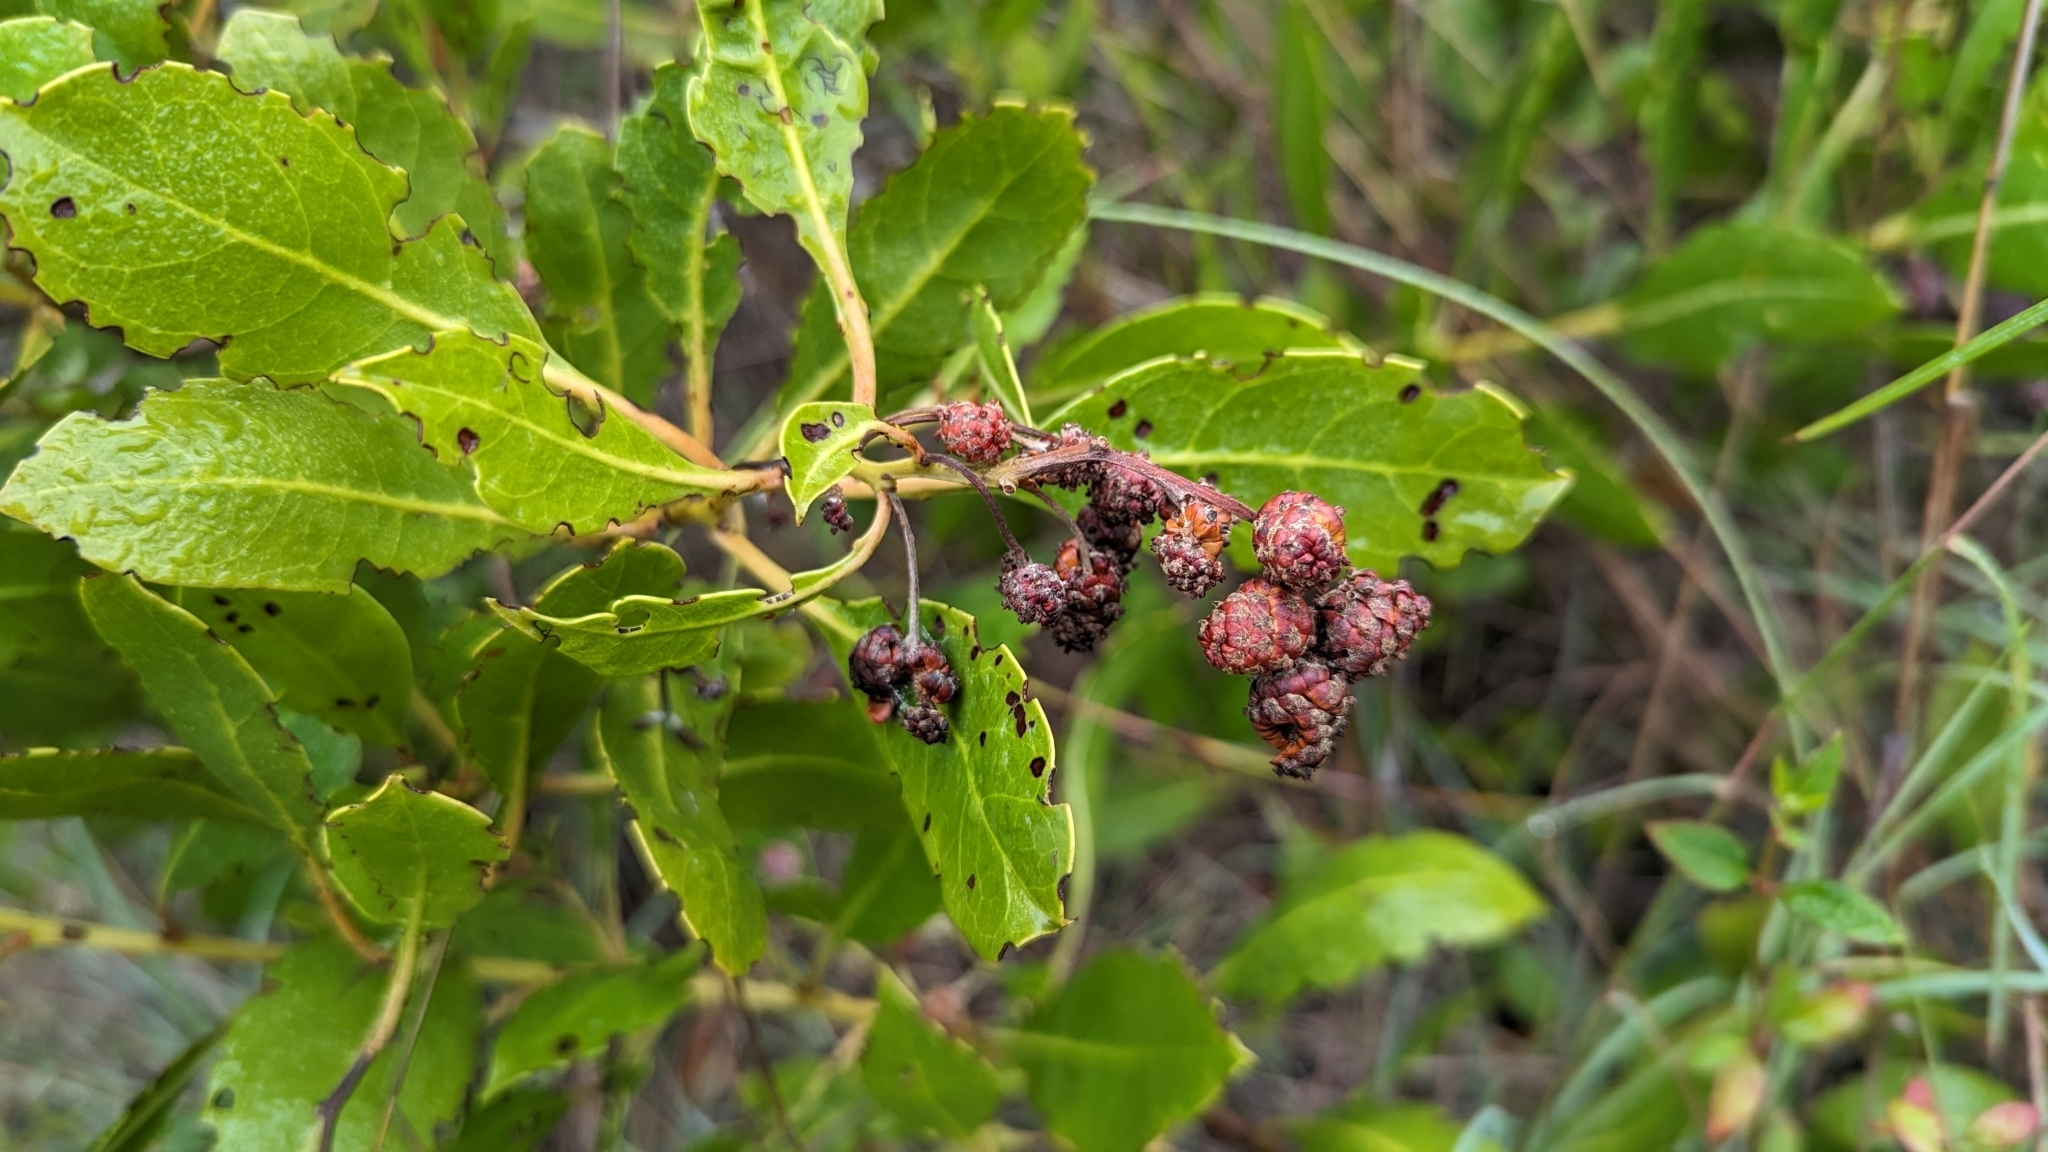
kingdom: Plantae
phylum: Tracheophyta
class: Magnoliopsida
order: Myrtales
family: Combretaceae
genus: Conocarpus
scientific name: Conocarpus erectus
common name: Button mangrove
